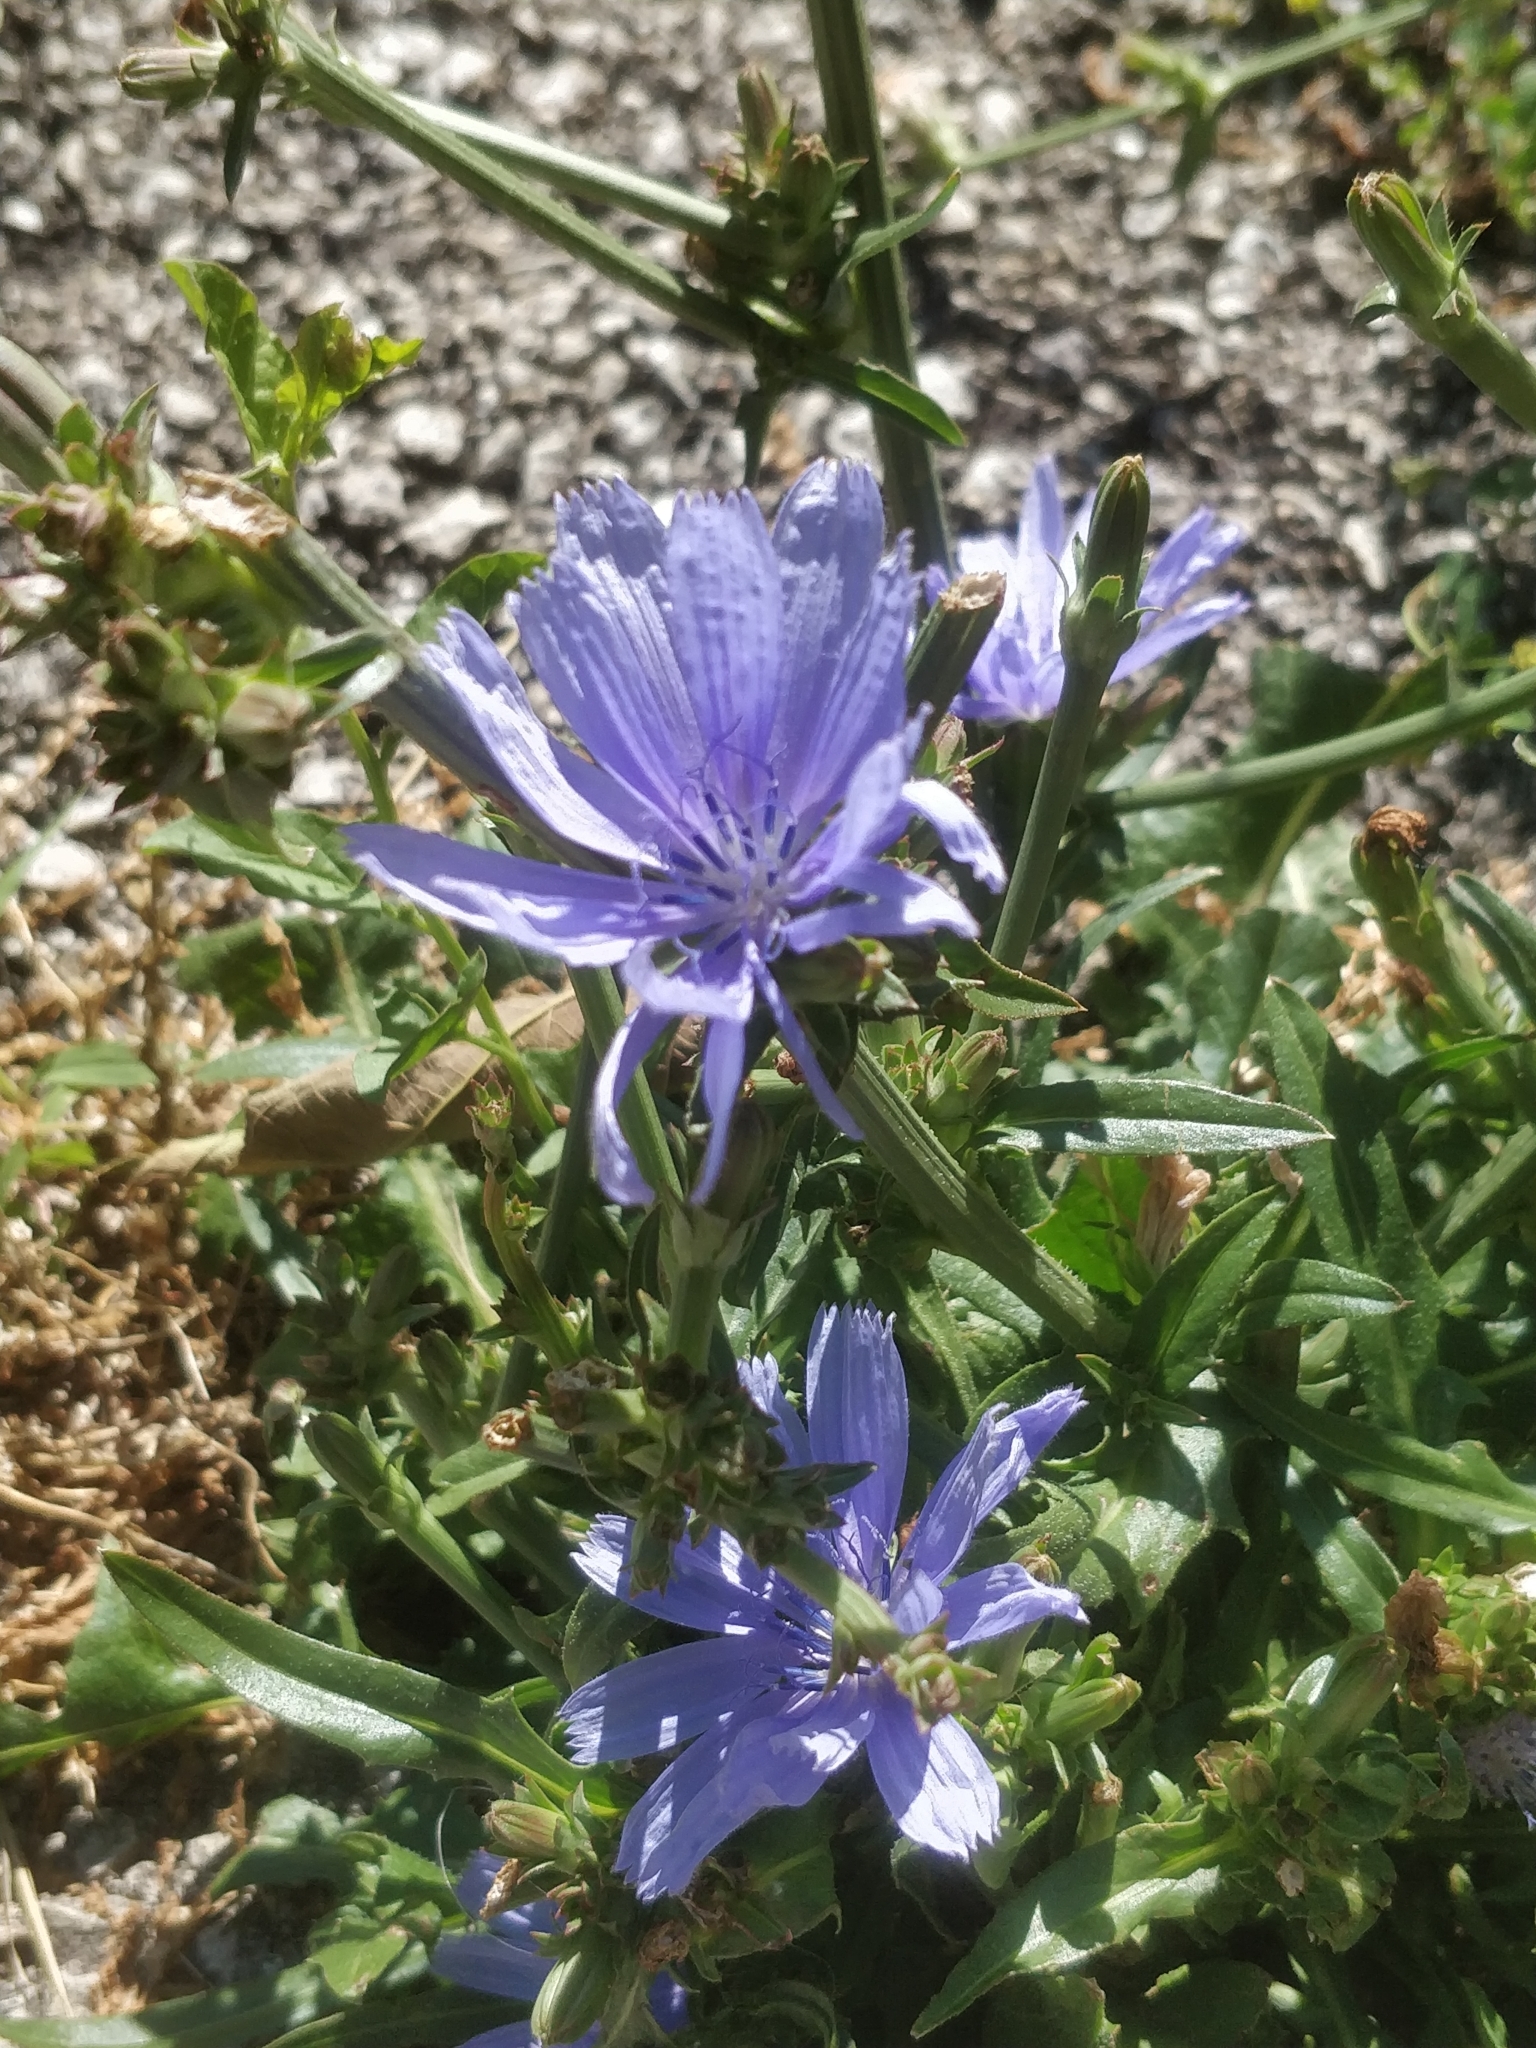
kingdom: Plantae
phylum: Tracheophyta
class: Magnoliopsida
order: Asterales
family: Asteraceae
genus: Cichorium
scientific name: Cichorium intybus
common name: Chicory
